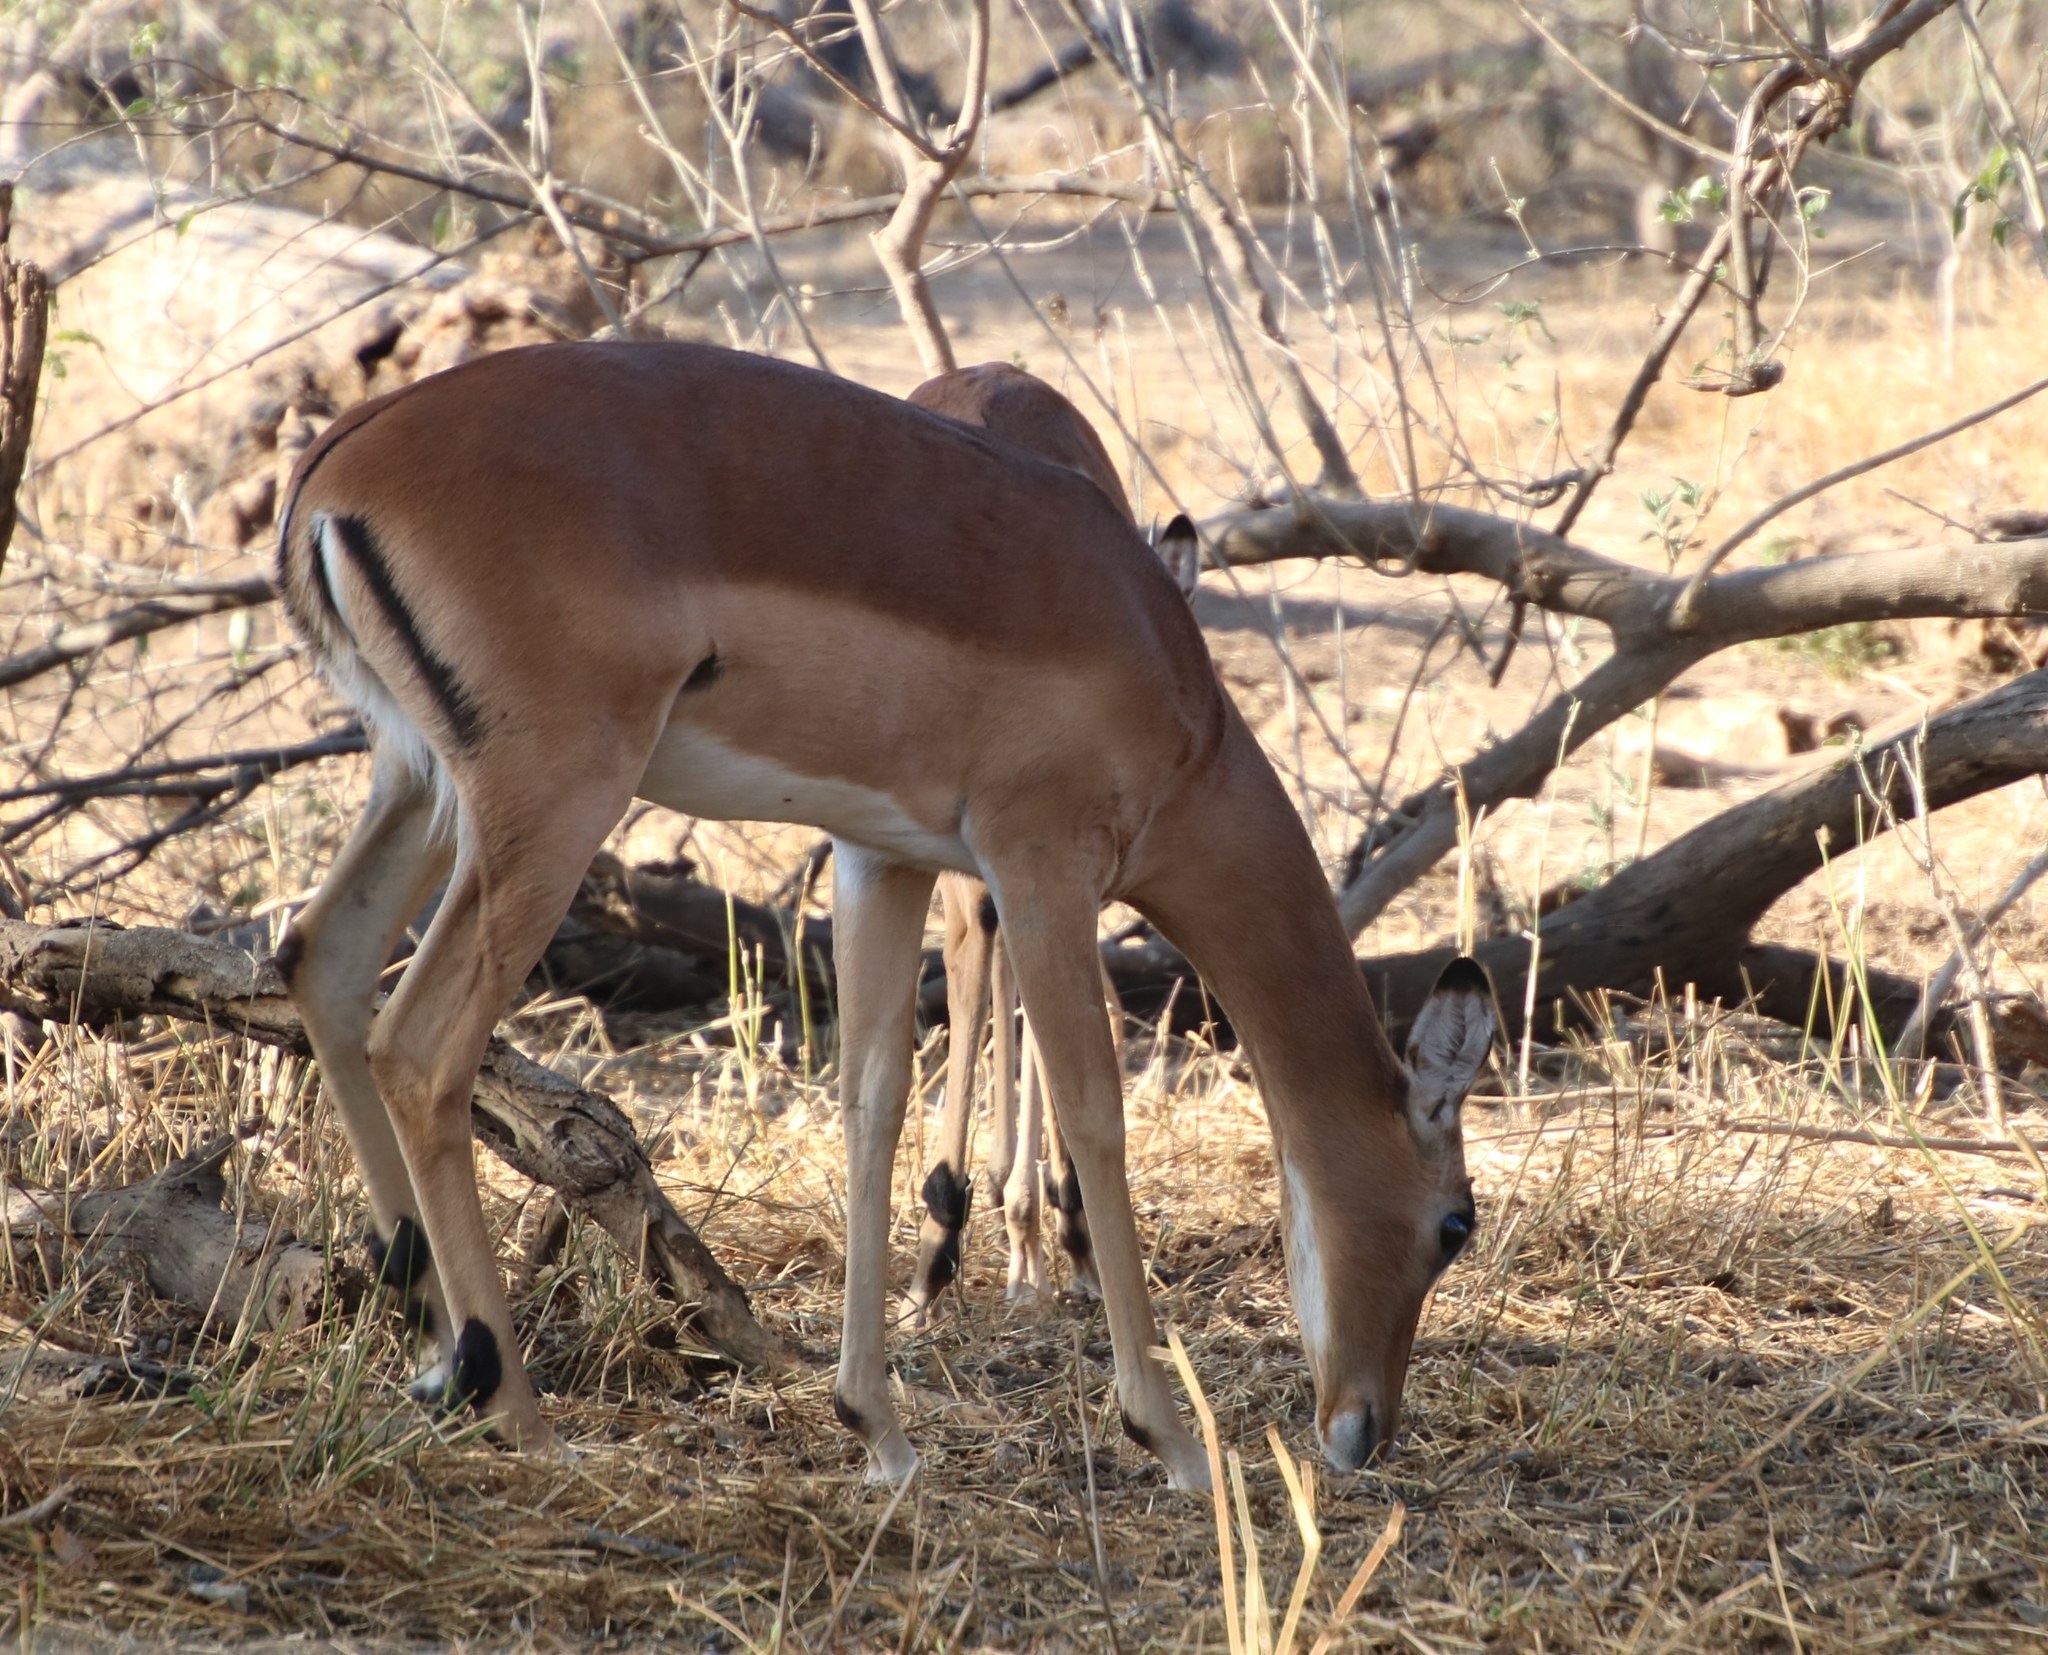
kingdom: Animalia
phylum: Chordata
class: Mammalia
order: Artiodactyla
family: Bovidae
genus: Aepyceros
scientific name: Aepyceros melampus
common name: Impala
